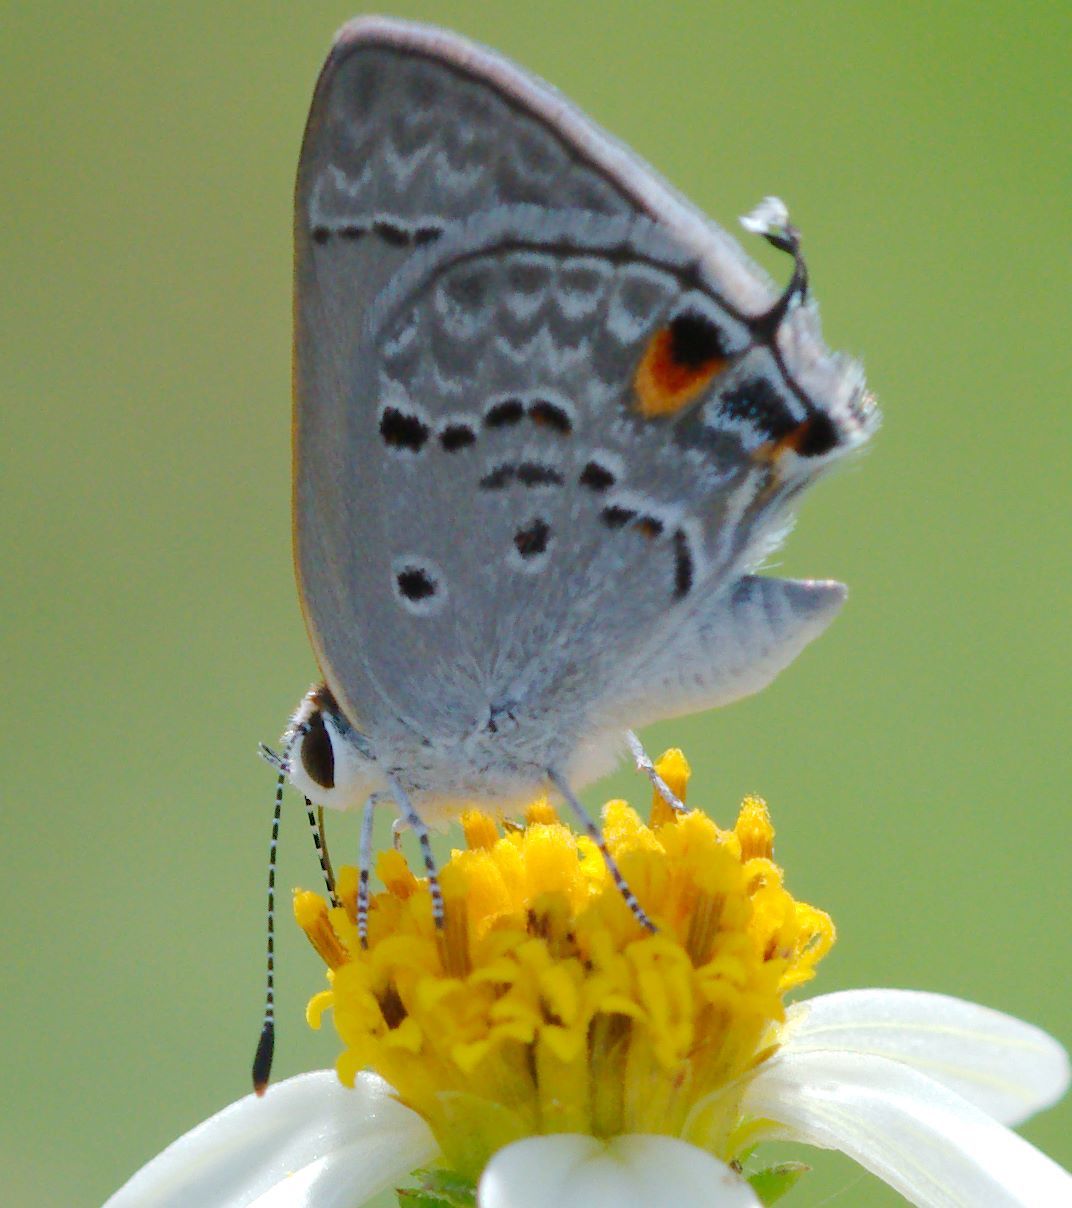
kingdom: Animalia
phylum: Arthropoda
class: Insecta
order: Lepidoptera
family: Lycaenidae
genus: Callicista
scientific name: Callicista columella
